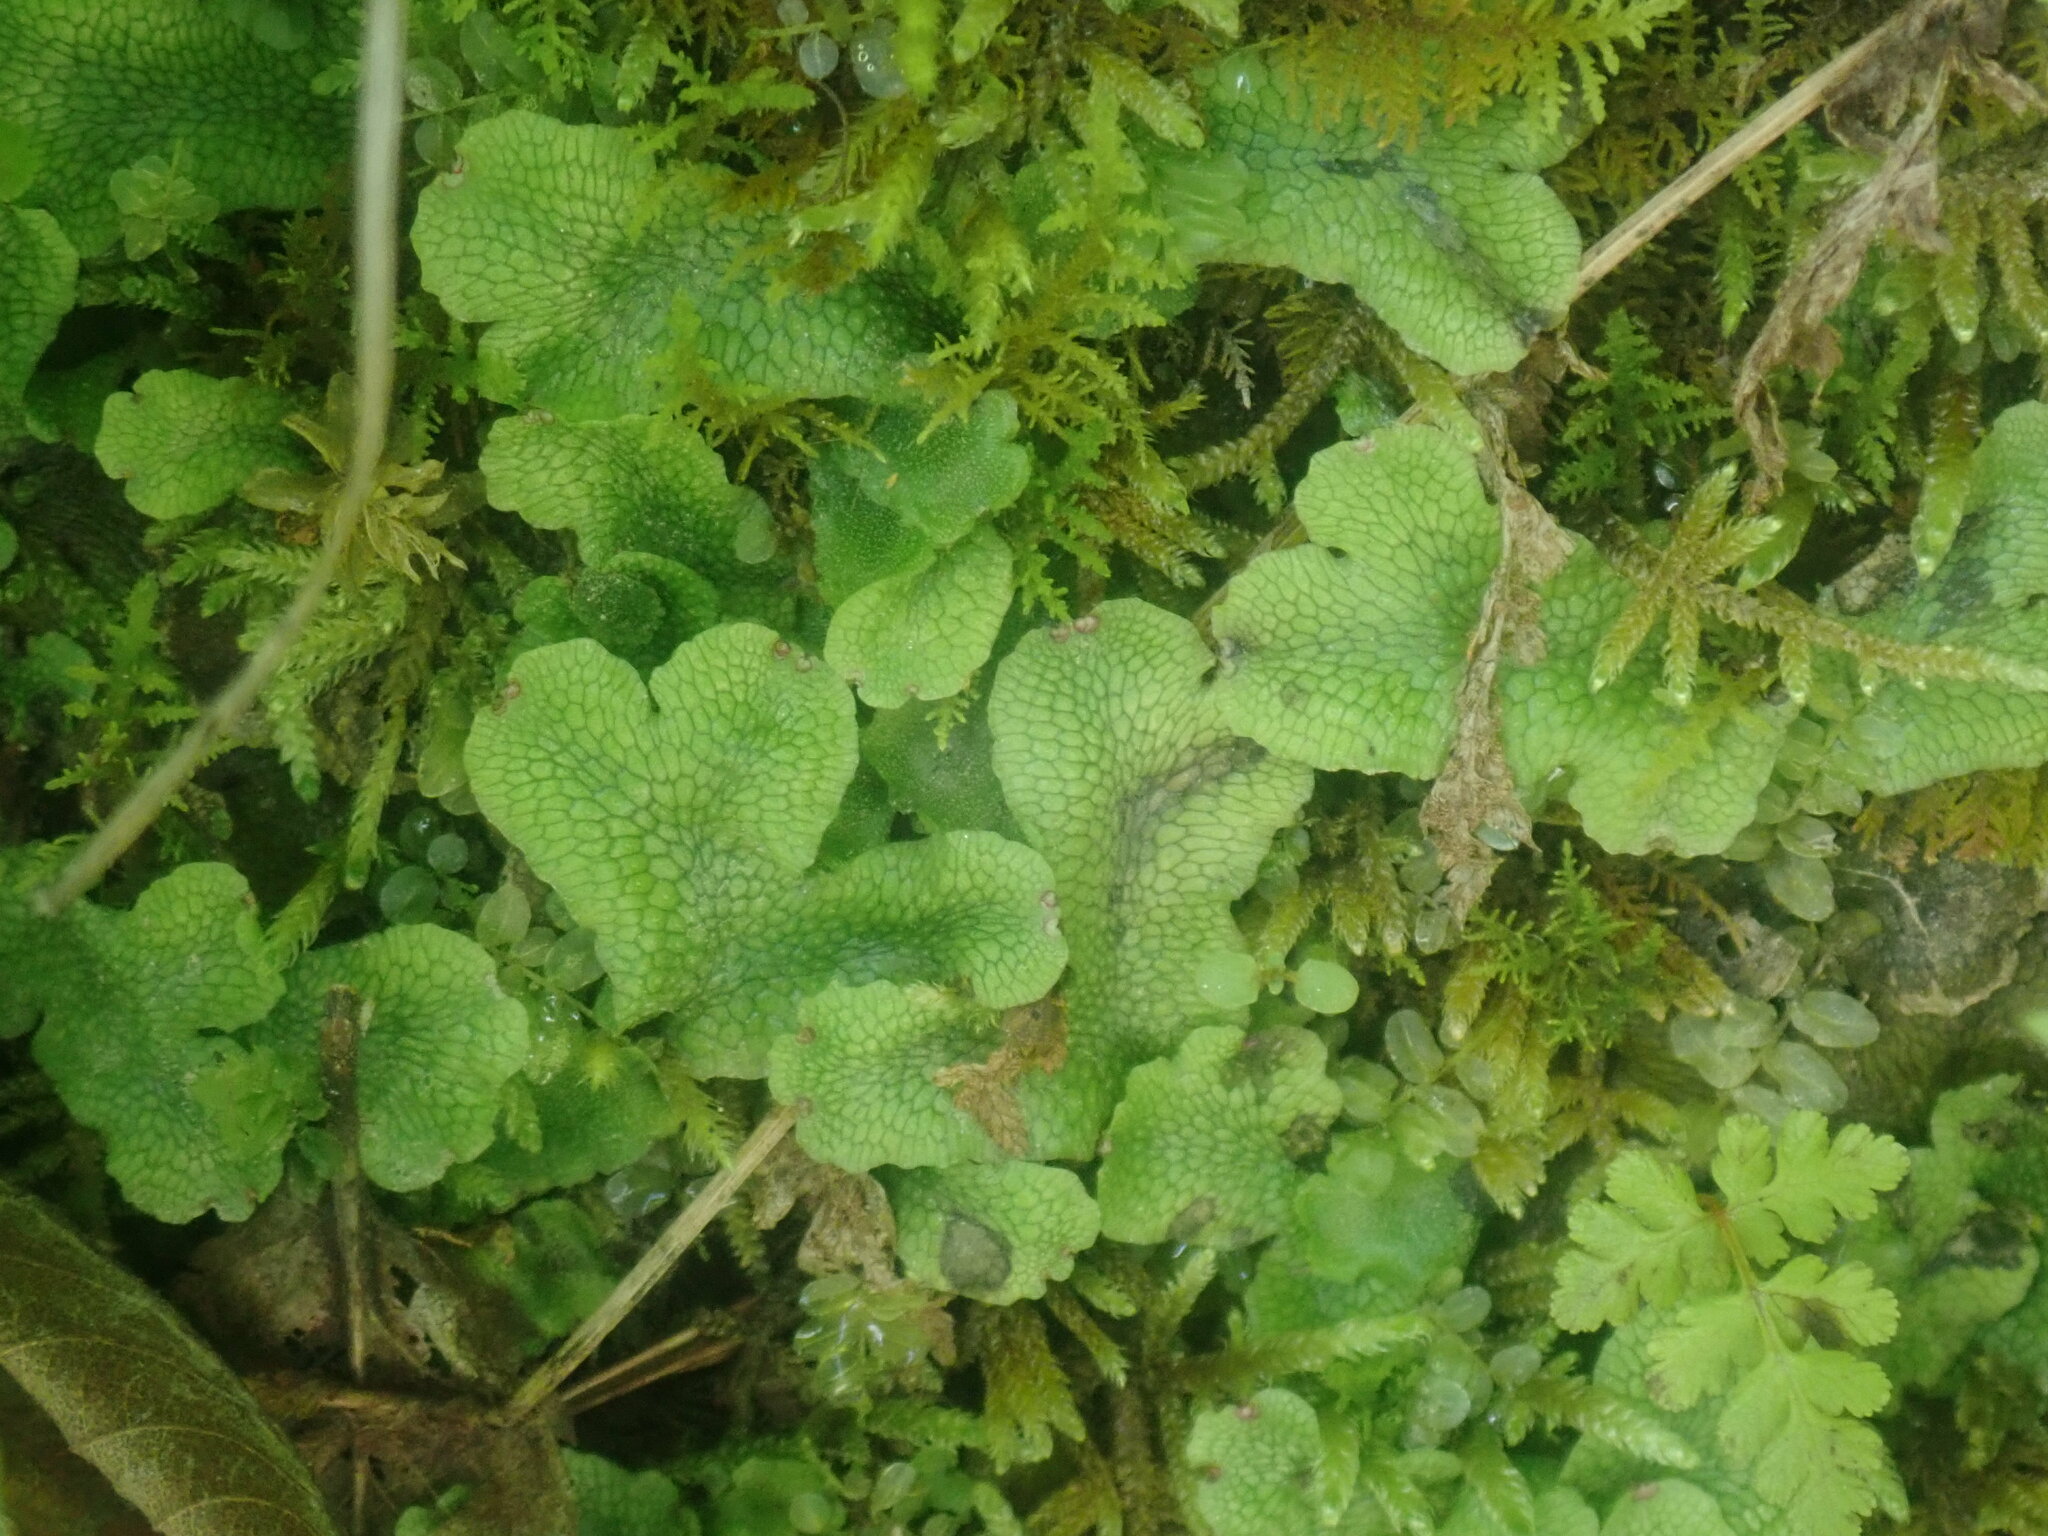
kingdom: Plantae
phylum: Marchantiophyta
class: Marchantiopsida
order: Marchantiales
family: Conocephalaceae
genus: Conocephalum
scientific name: Conocephalum salebrosum
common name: Cat-tongue liverwort
